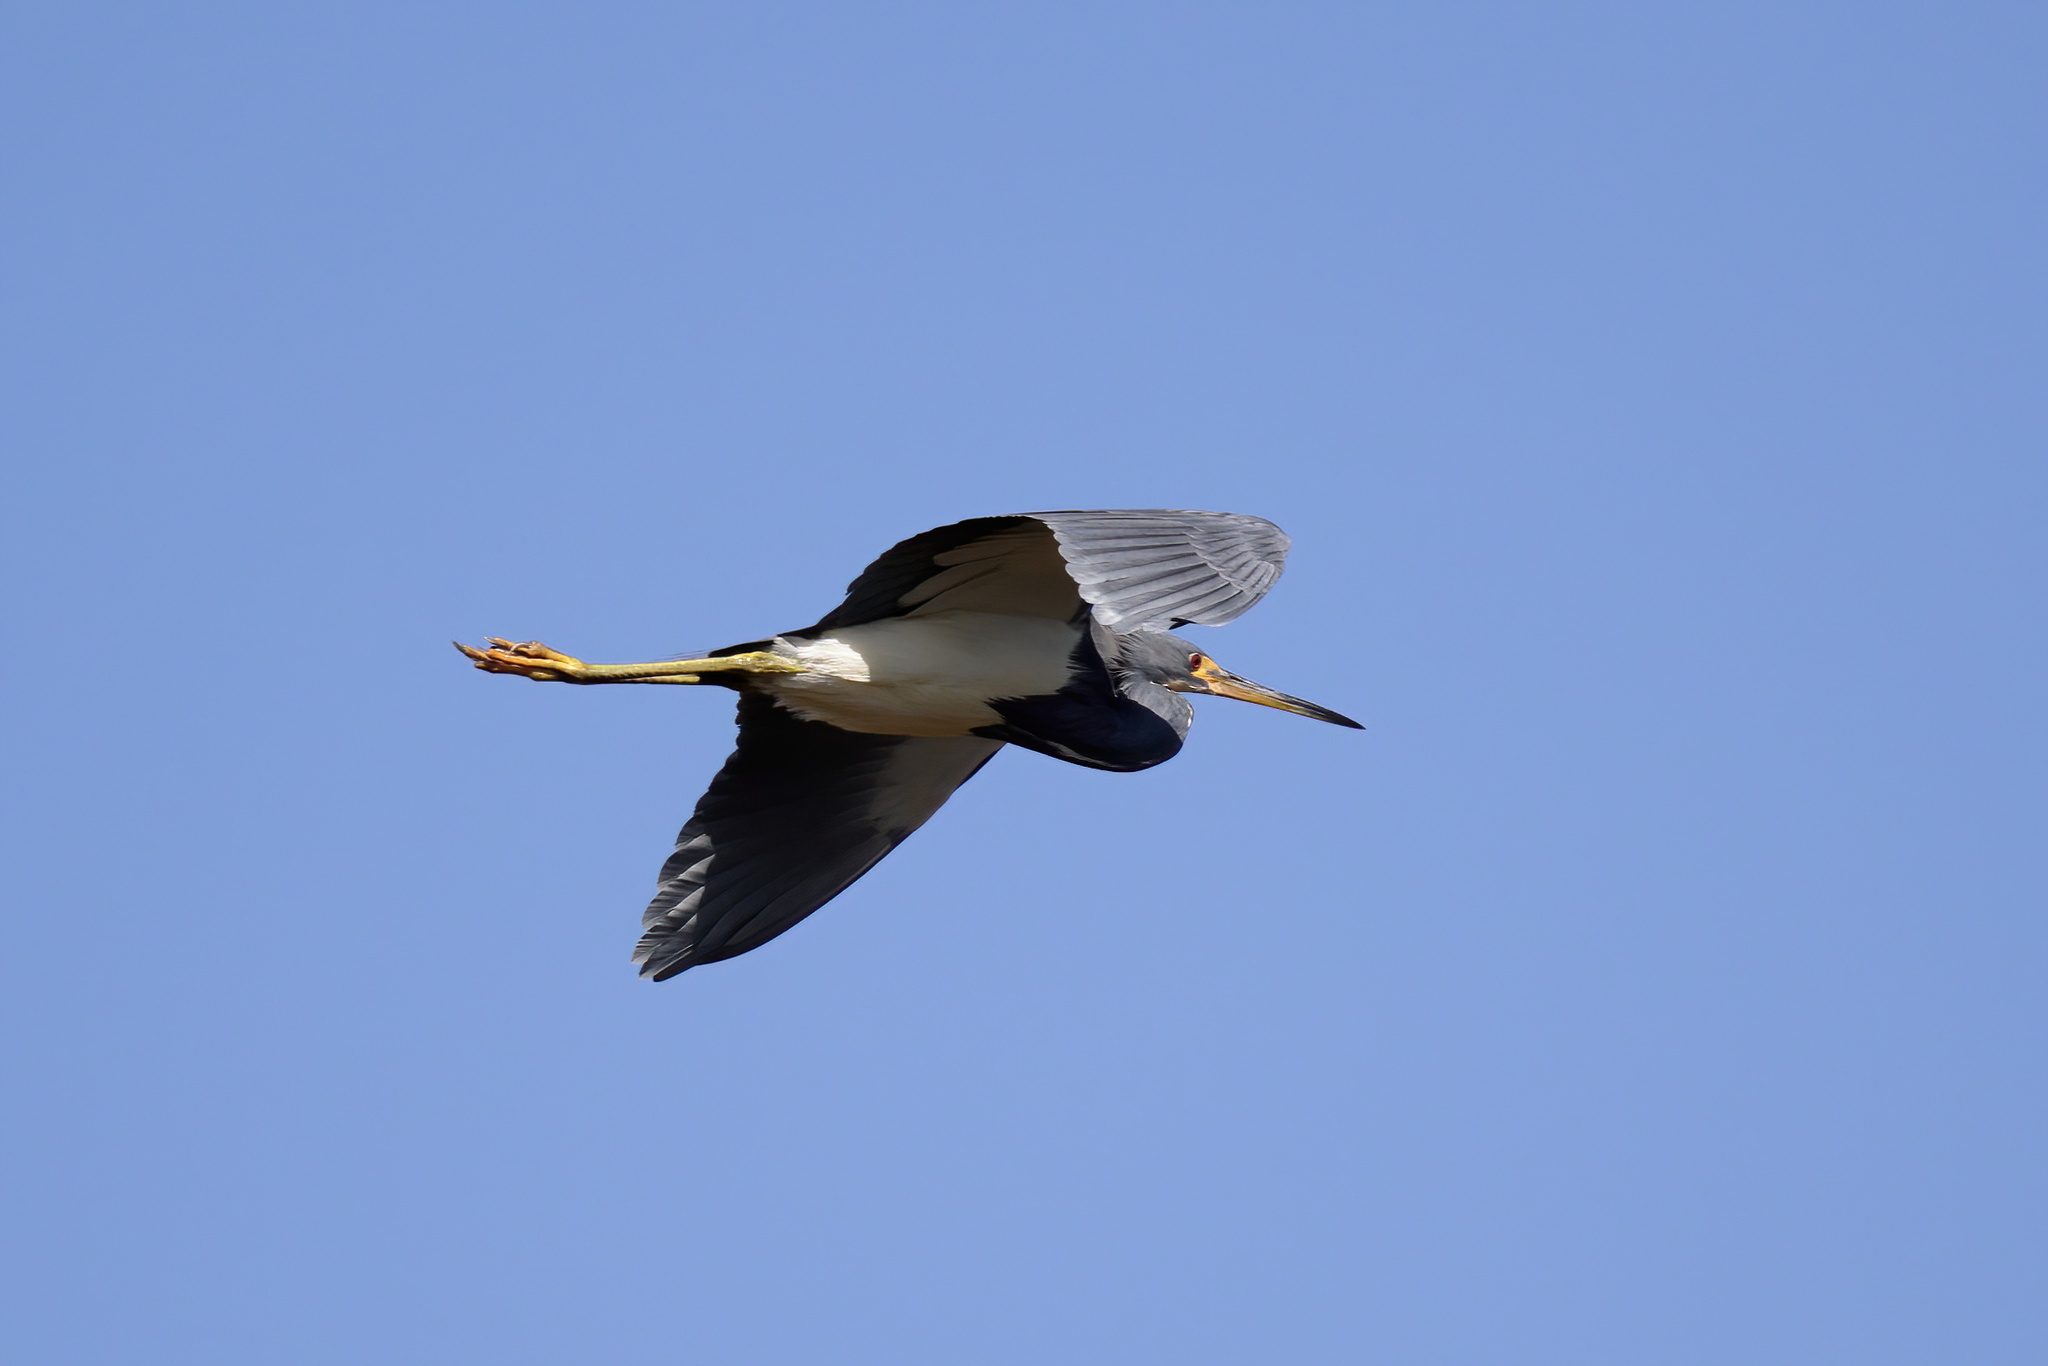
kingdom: Animalia
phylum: Chordata
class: Aves
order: Pelecaniformes
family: Ardeidae
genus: Egretta
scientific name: Egretta tricolor
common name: Tricolored heron
